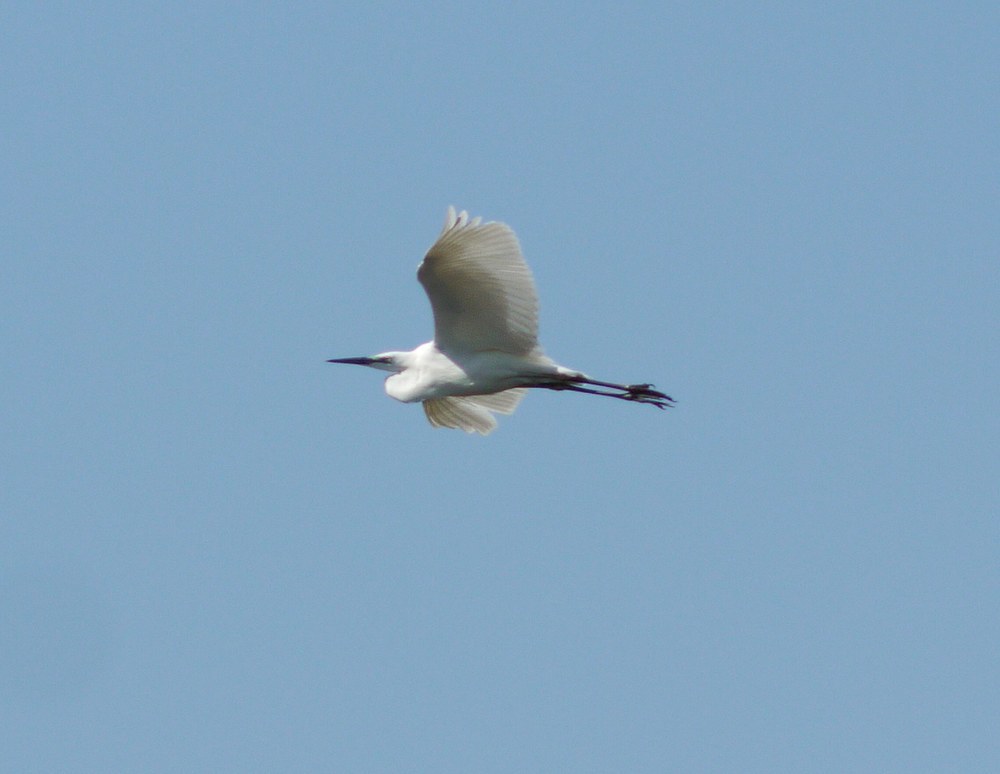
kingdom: Animalia
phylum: Chordata
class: Aves
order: Pelecaniformes
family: Ardeidae
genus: Ardea
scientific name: Ardea alba
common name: Great egret
